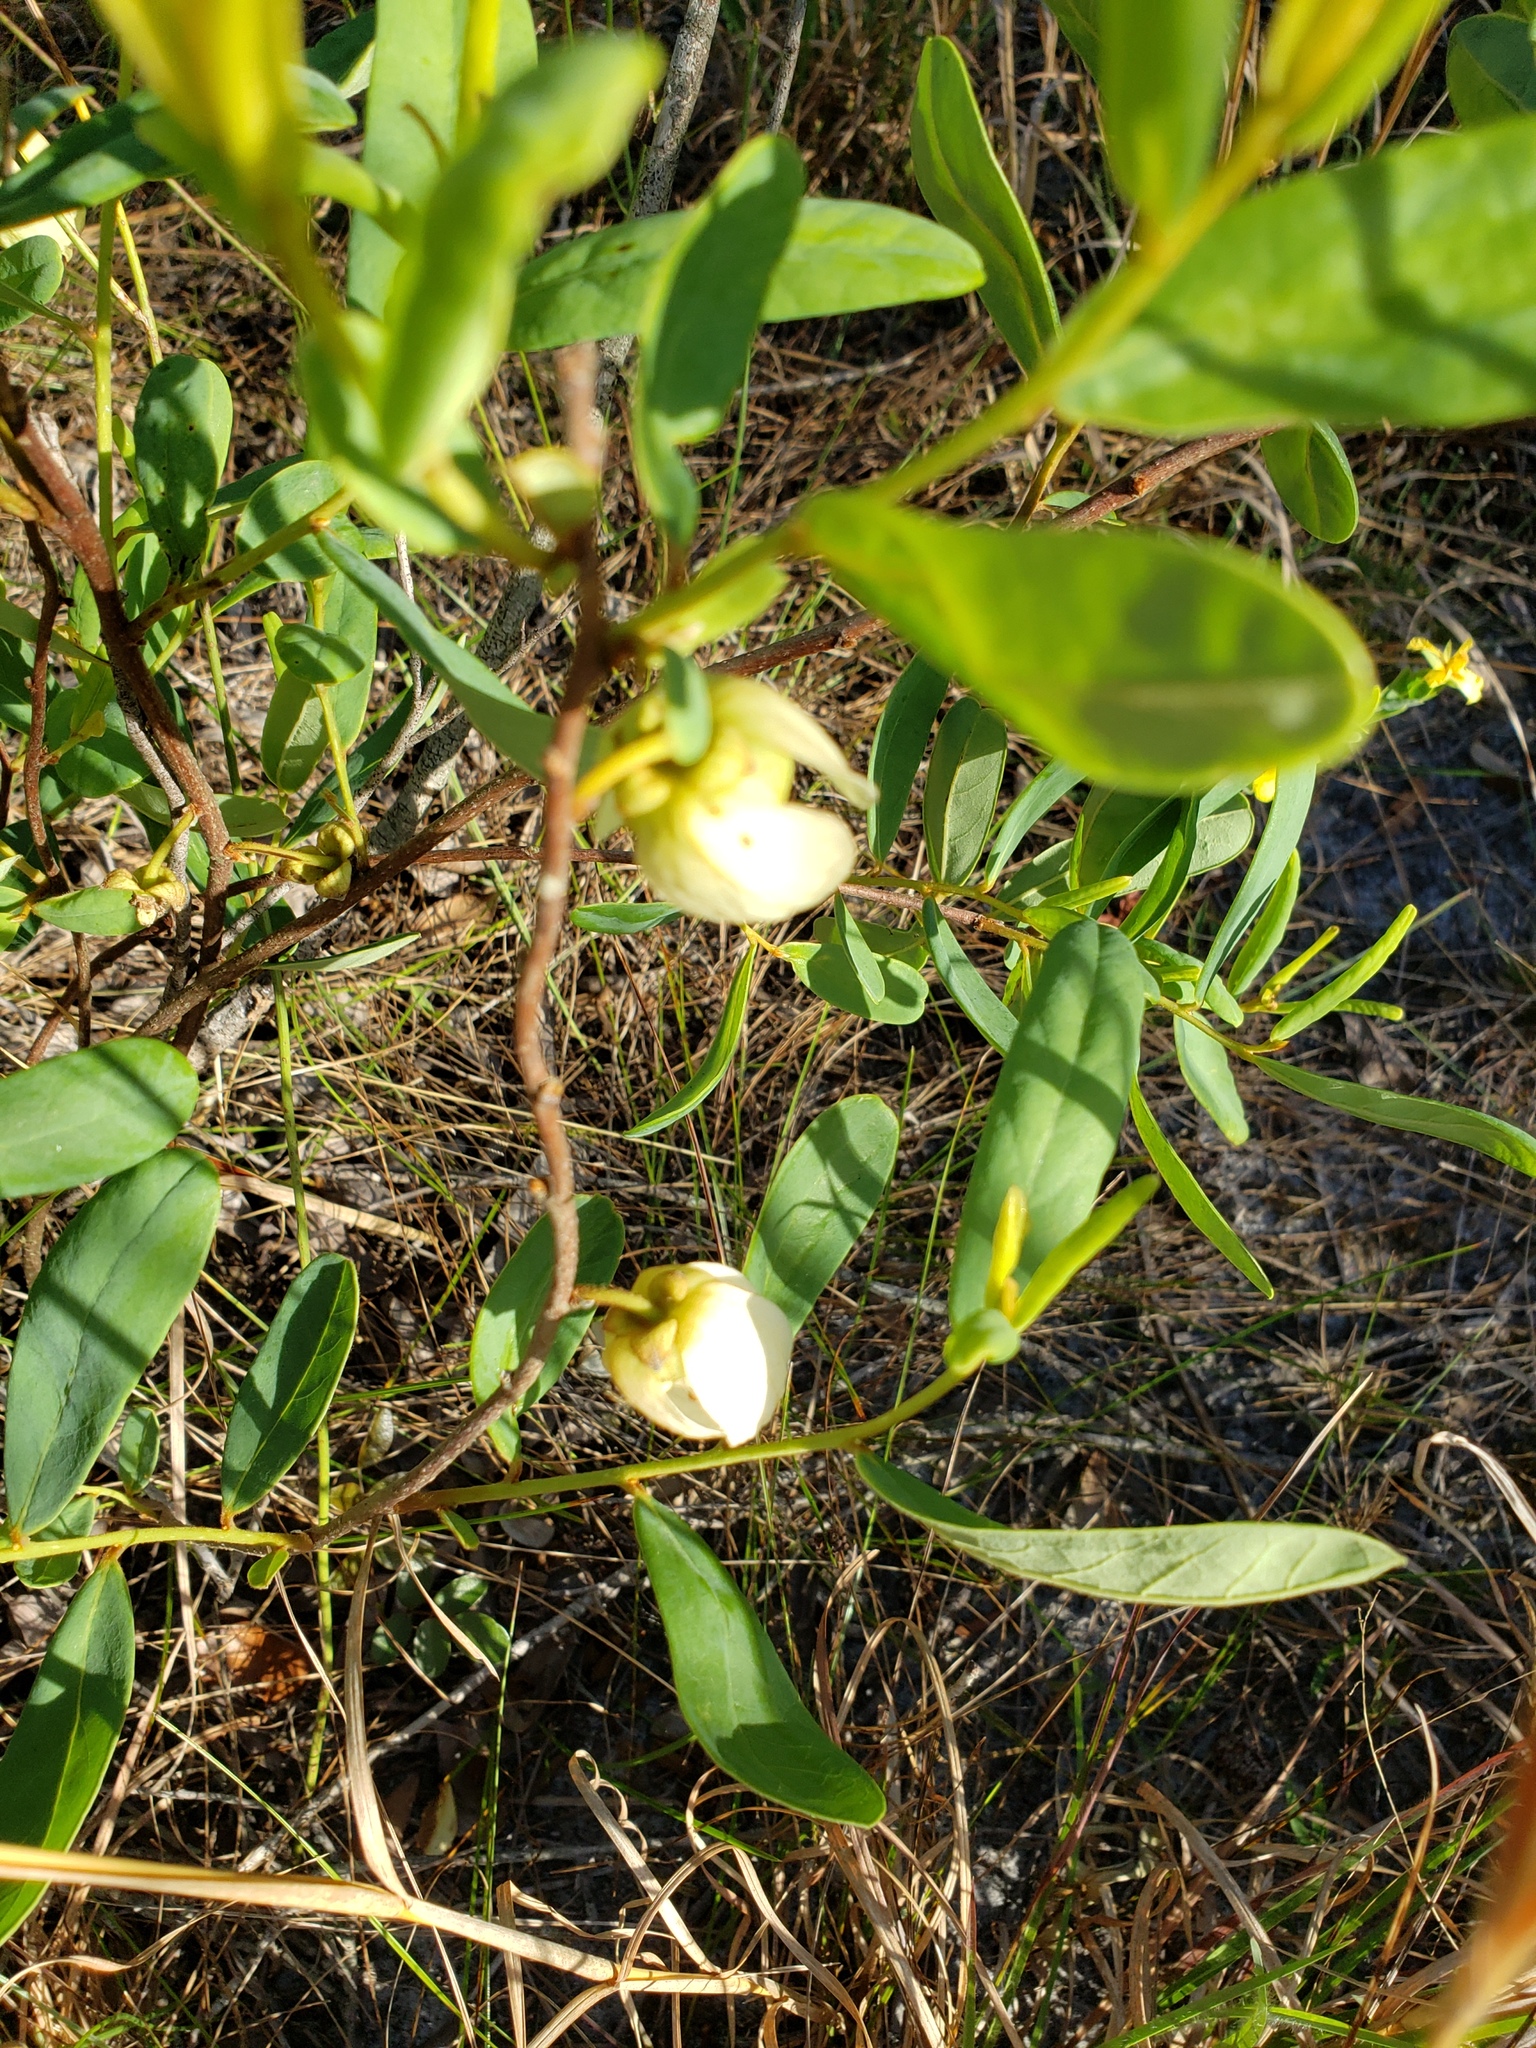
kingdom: Plantae
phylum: Tracheophyta
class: Magnoliopsida
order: Magnoliales
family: Annonaceae
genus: Asimina
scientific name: Asimina reticulata
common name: Flag pawpaw
